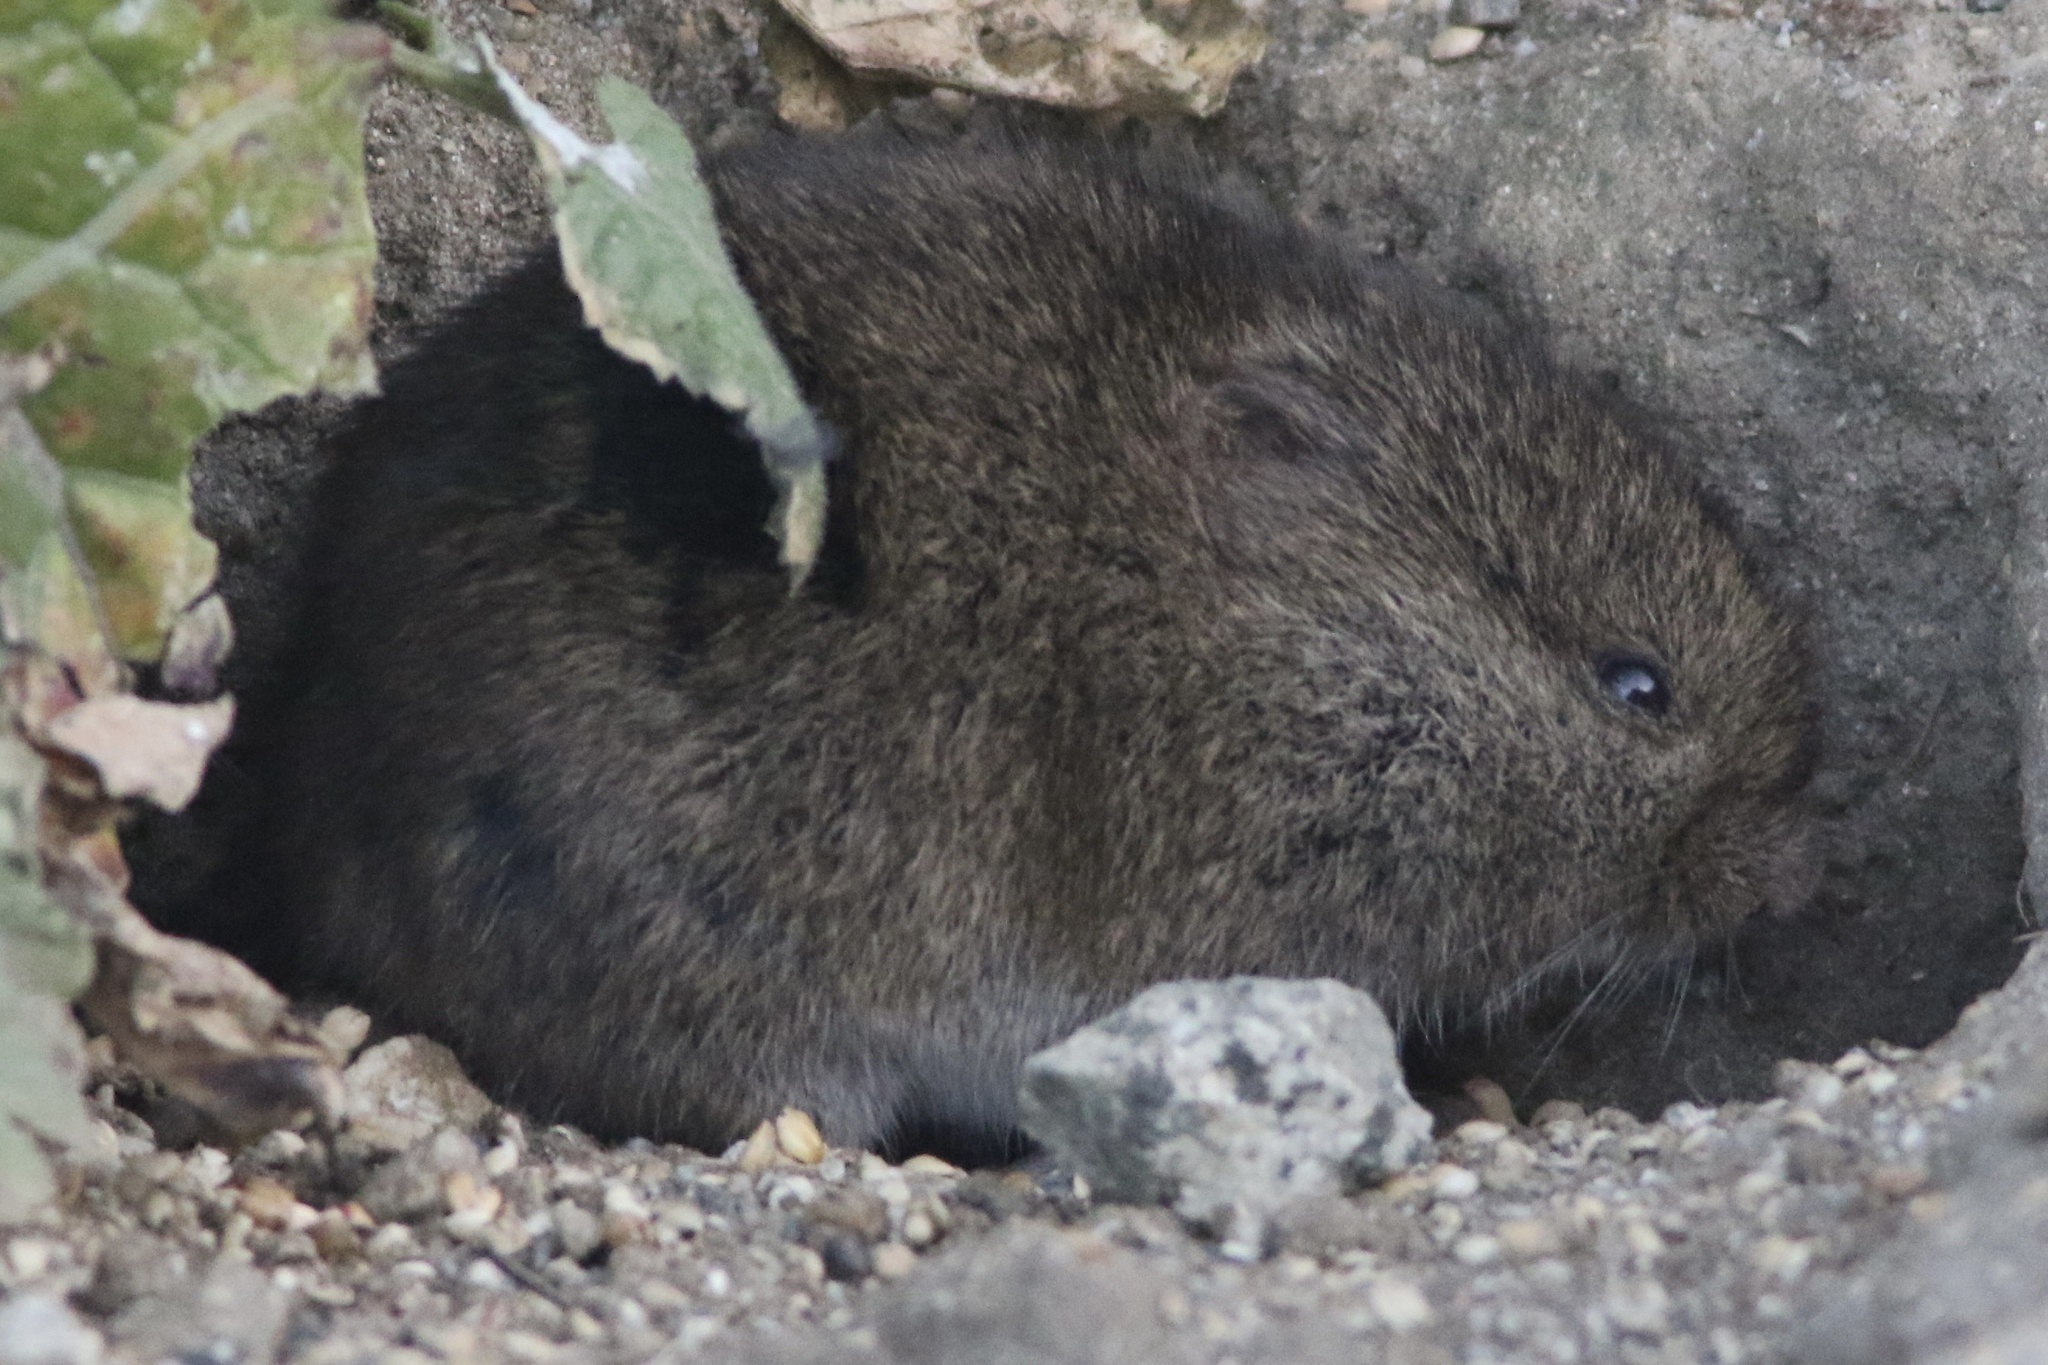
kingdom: Animalia
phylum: Chordata
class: Mammalia
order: Rodentia
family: Cricetidae
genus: Microtus
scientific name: Microtus californicus
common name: California vole
